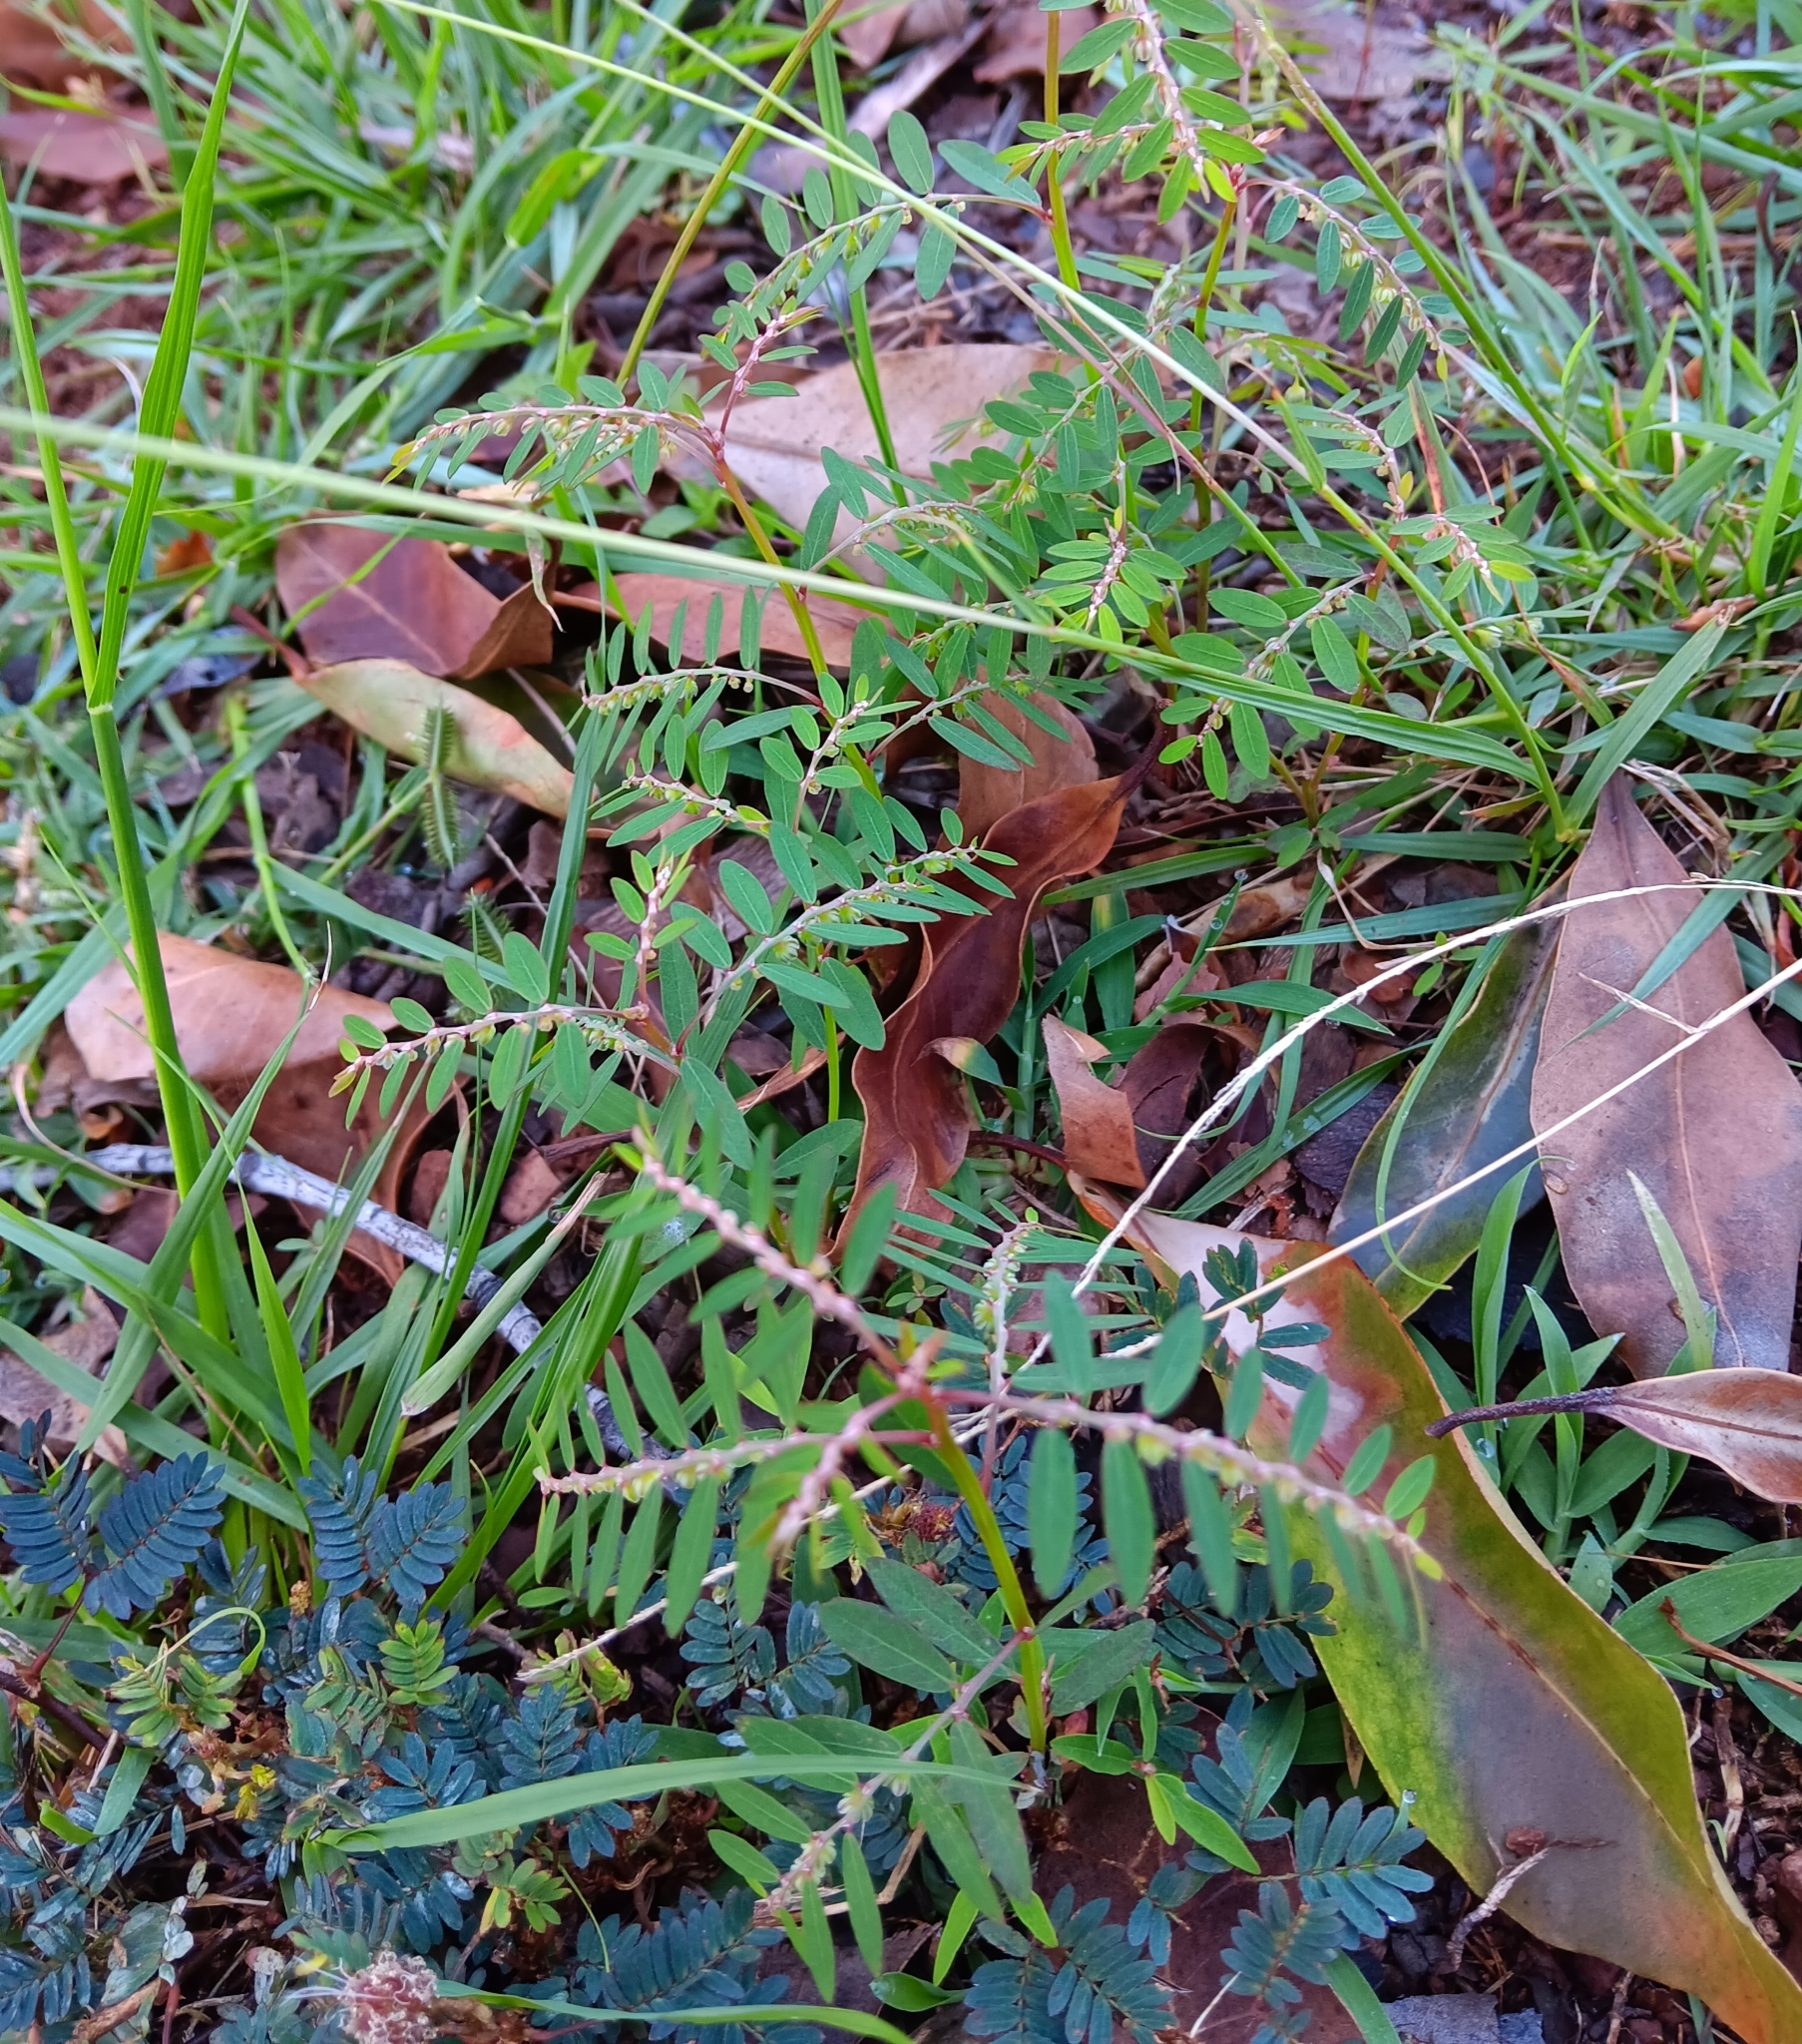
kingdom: Plantae
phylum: Tracheophyta
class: Magnoliopsida
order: Malpighiales
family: Phyllanthaceae
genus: Phyllanthus
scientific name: Phyllanthus debilis
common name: Niruri
